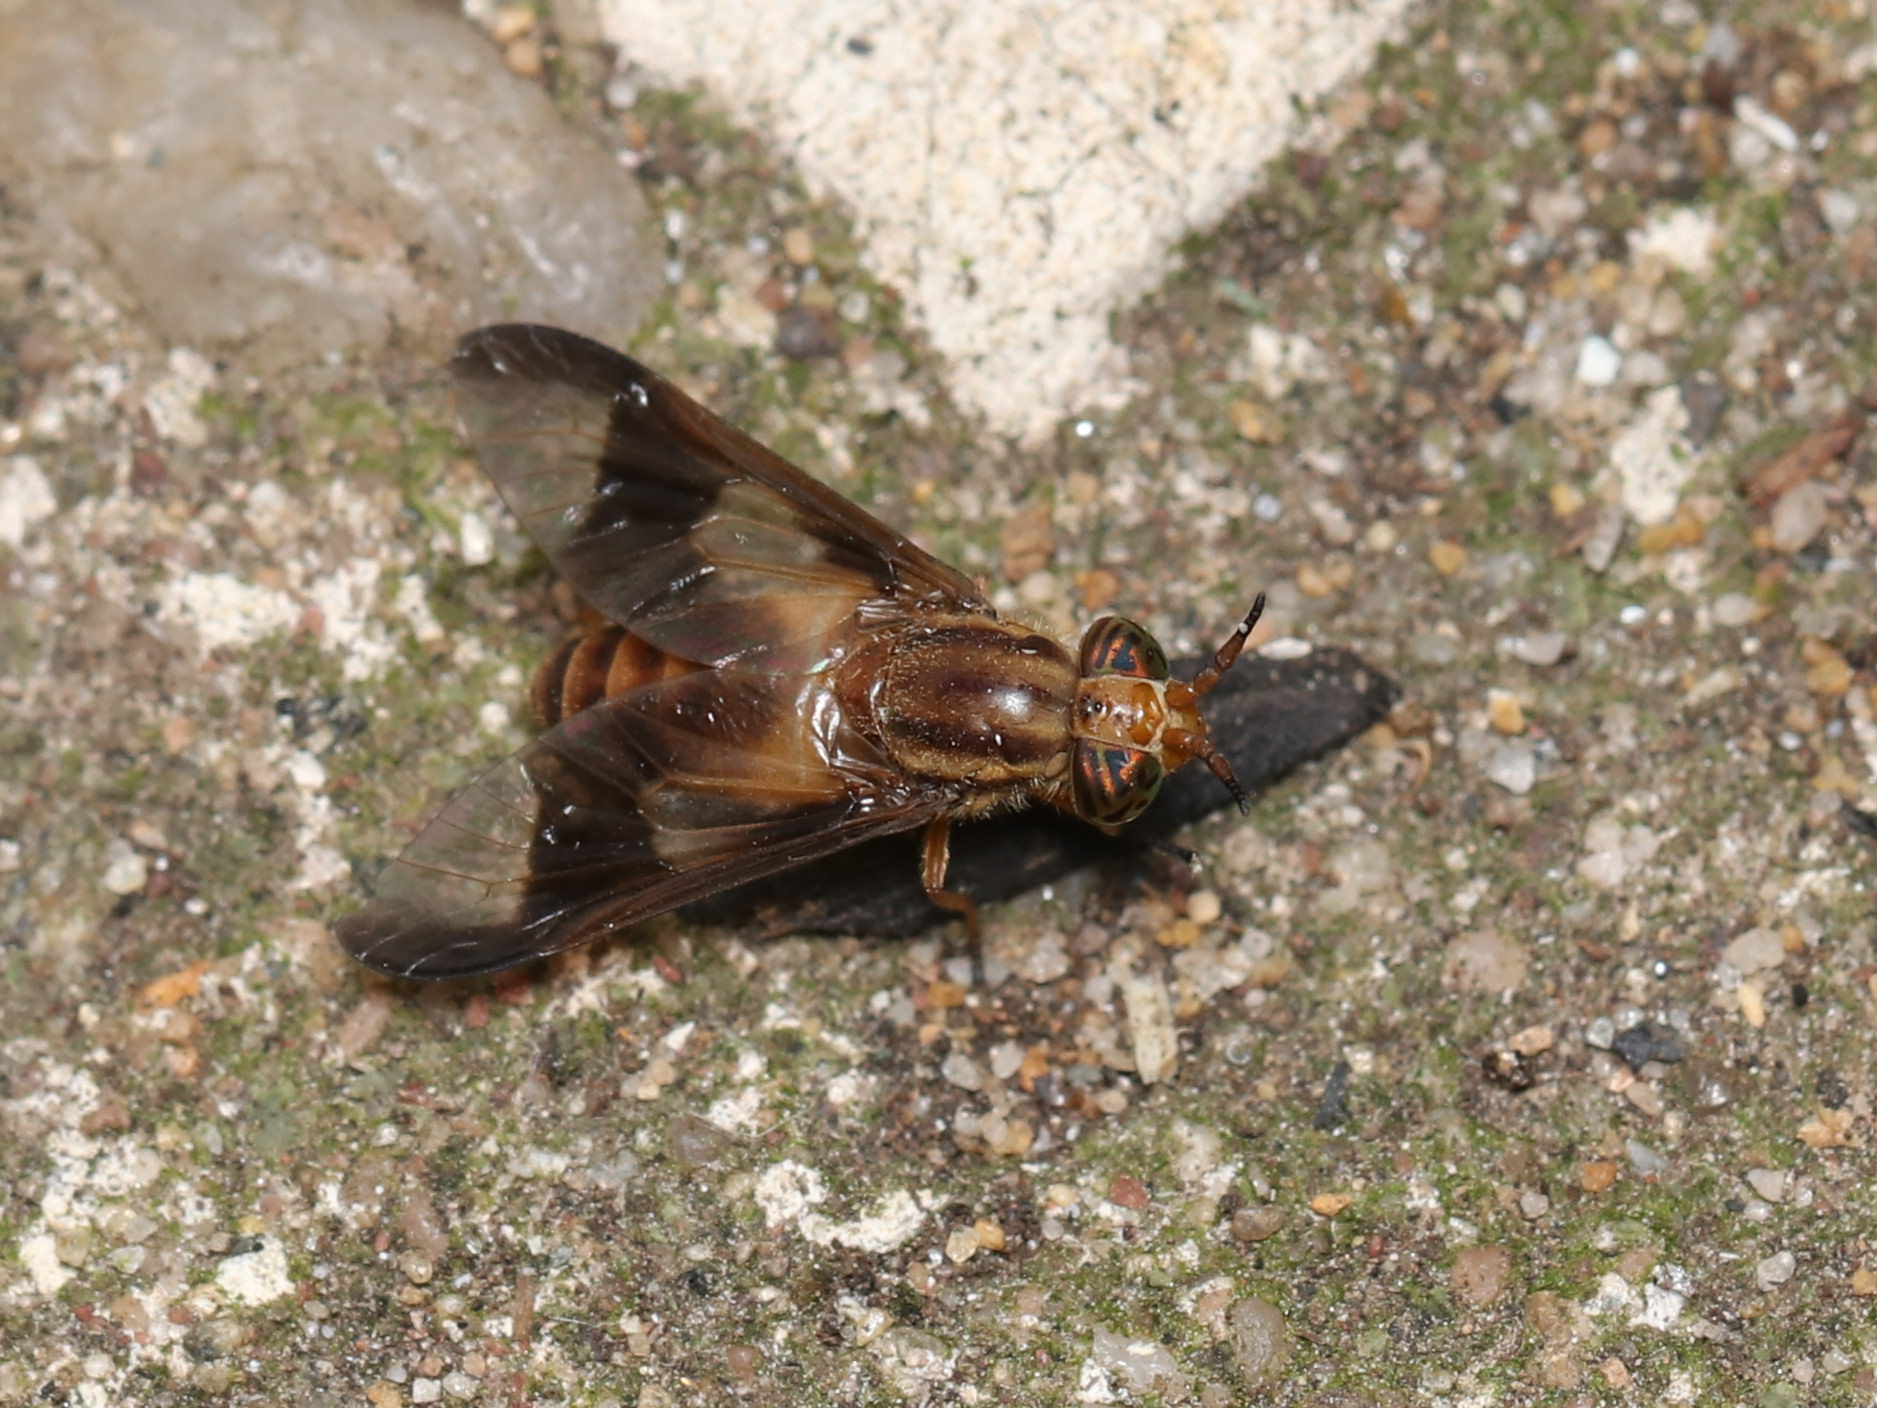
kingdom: Animalia
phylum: Arthropoda
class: Insecta
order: Diptera
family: Tabanidae
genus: Chrysops
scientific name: Chrysops flavidus
